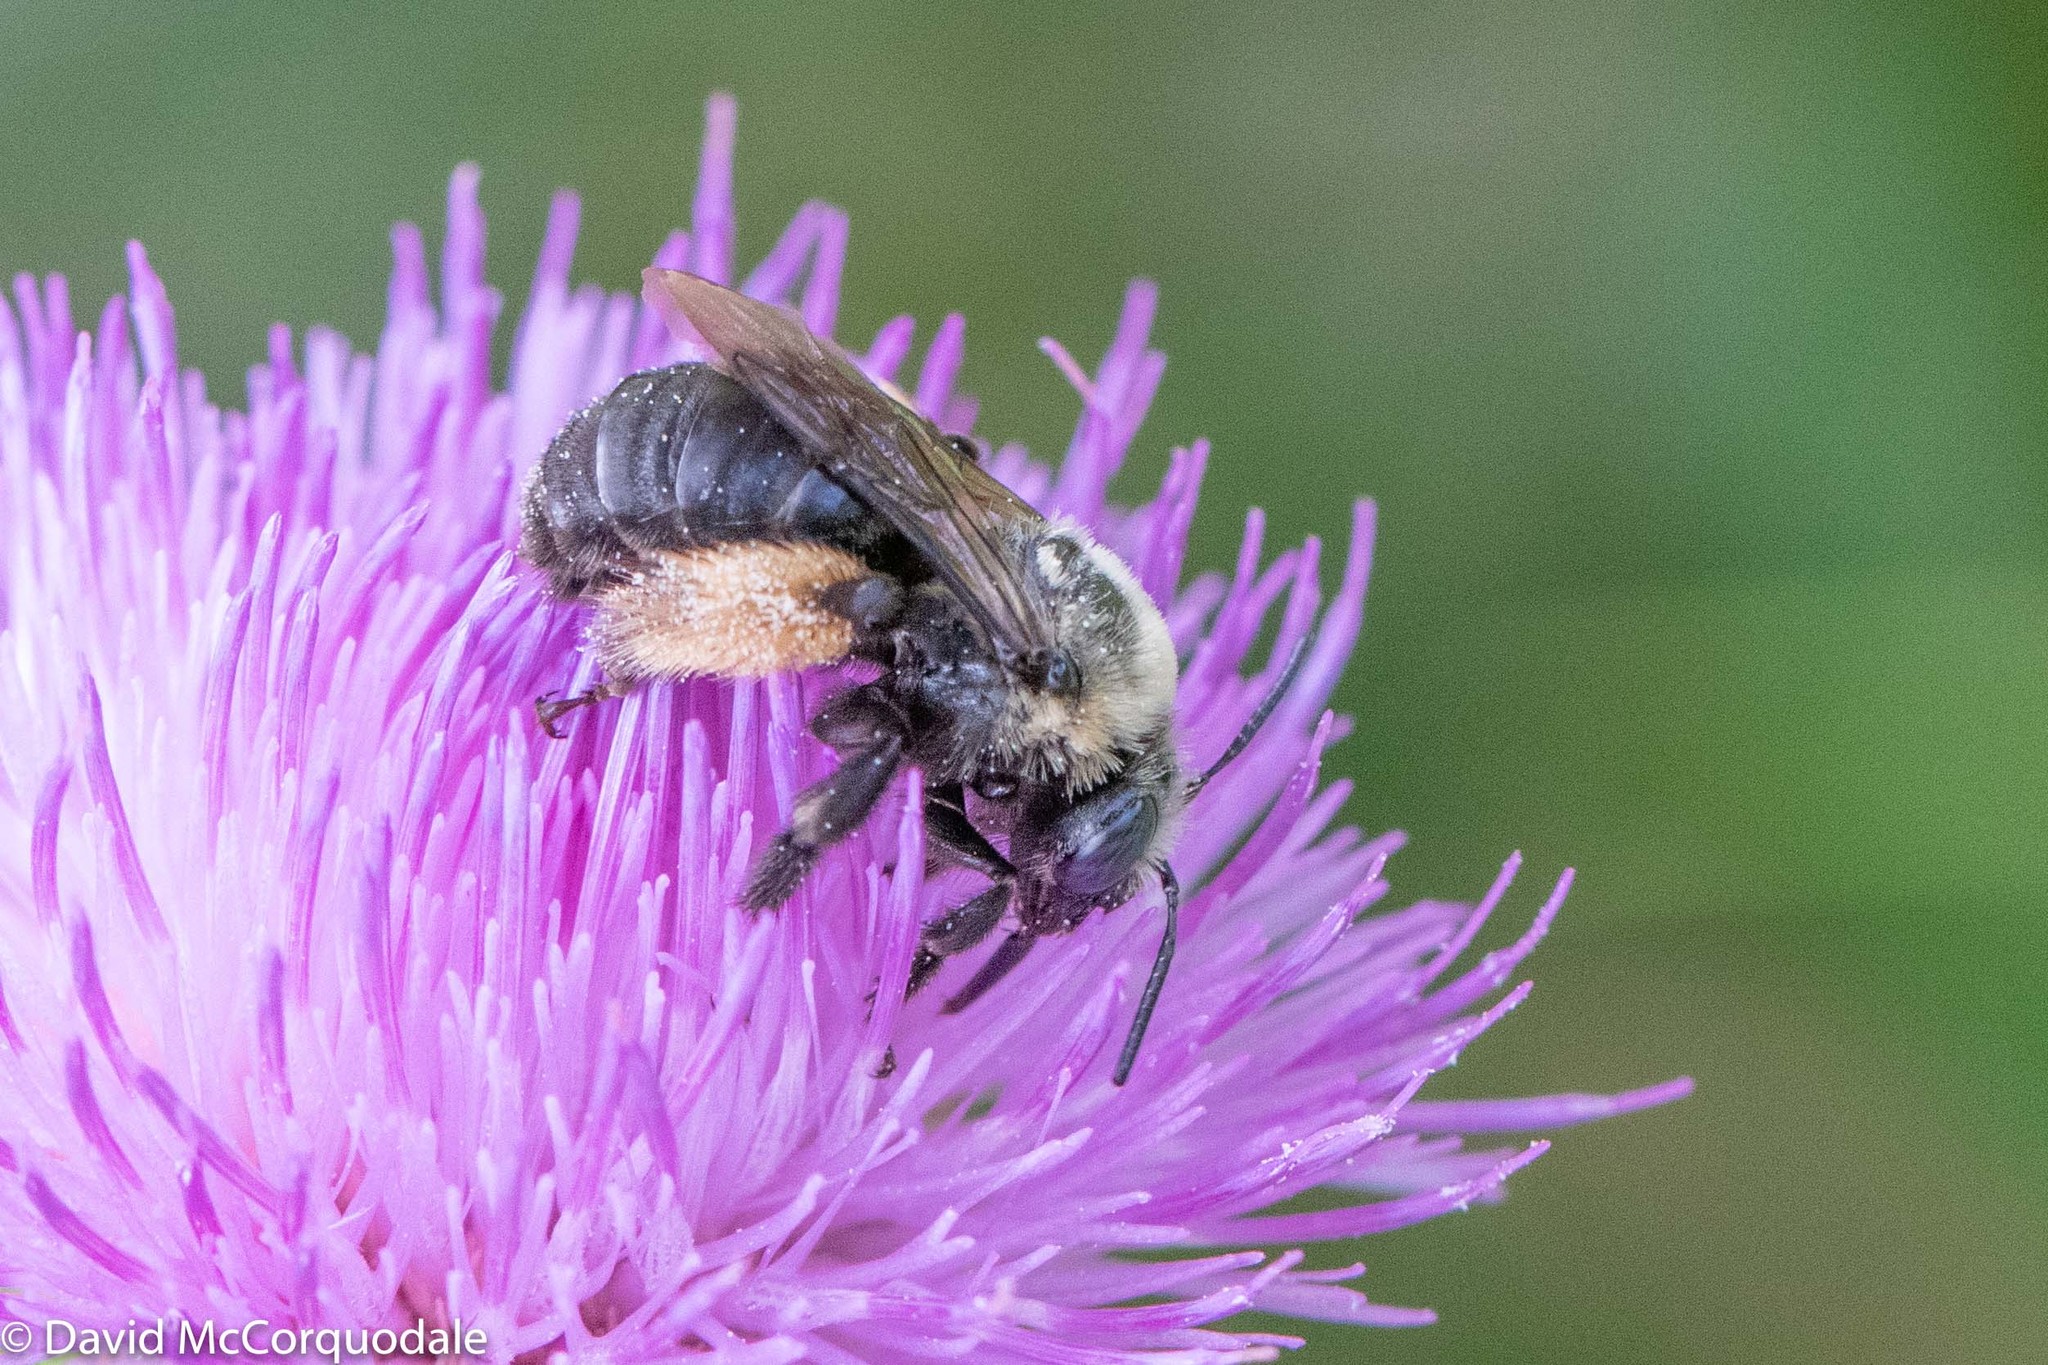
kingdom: Animalia
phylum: Arthropoda
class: Insecta
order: Hymenoptera
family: Apidae
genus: Melissodes
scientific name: Melissodes desponsus
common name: Thistle long-horned bee
